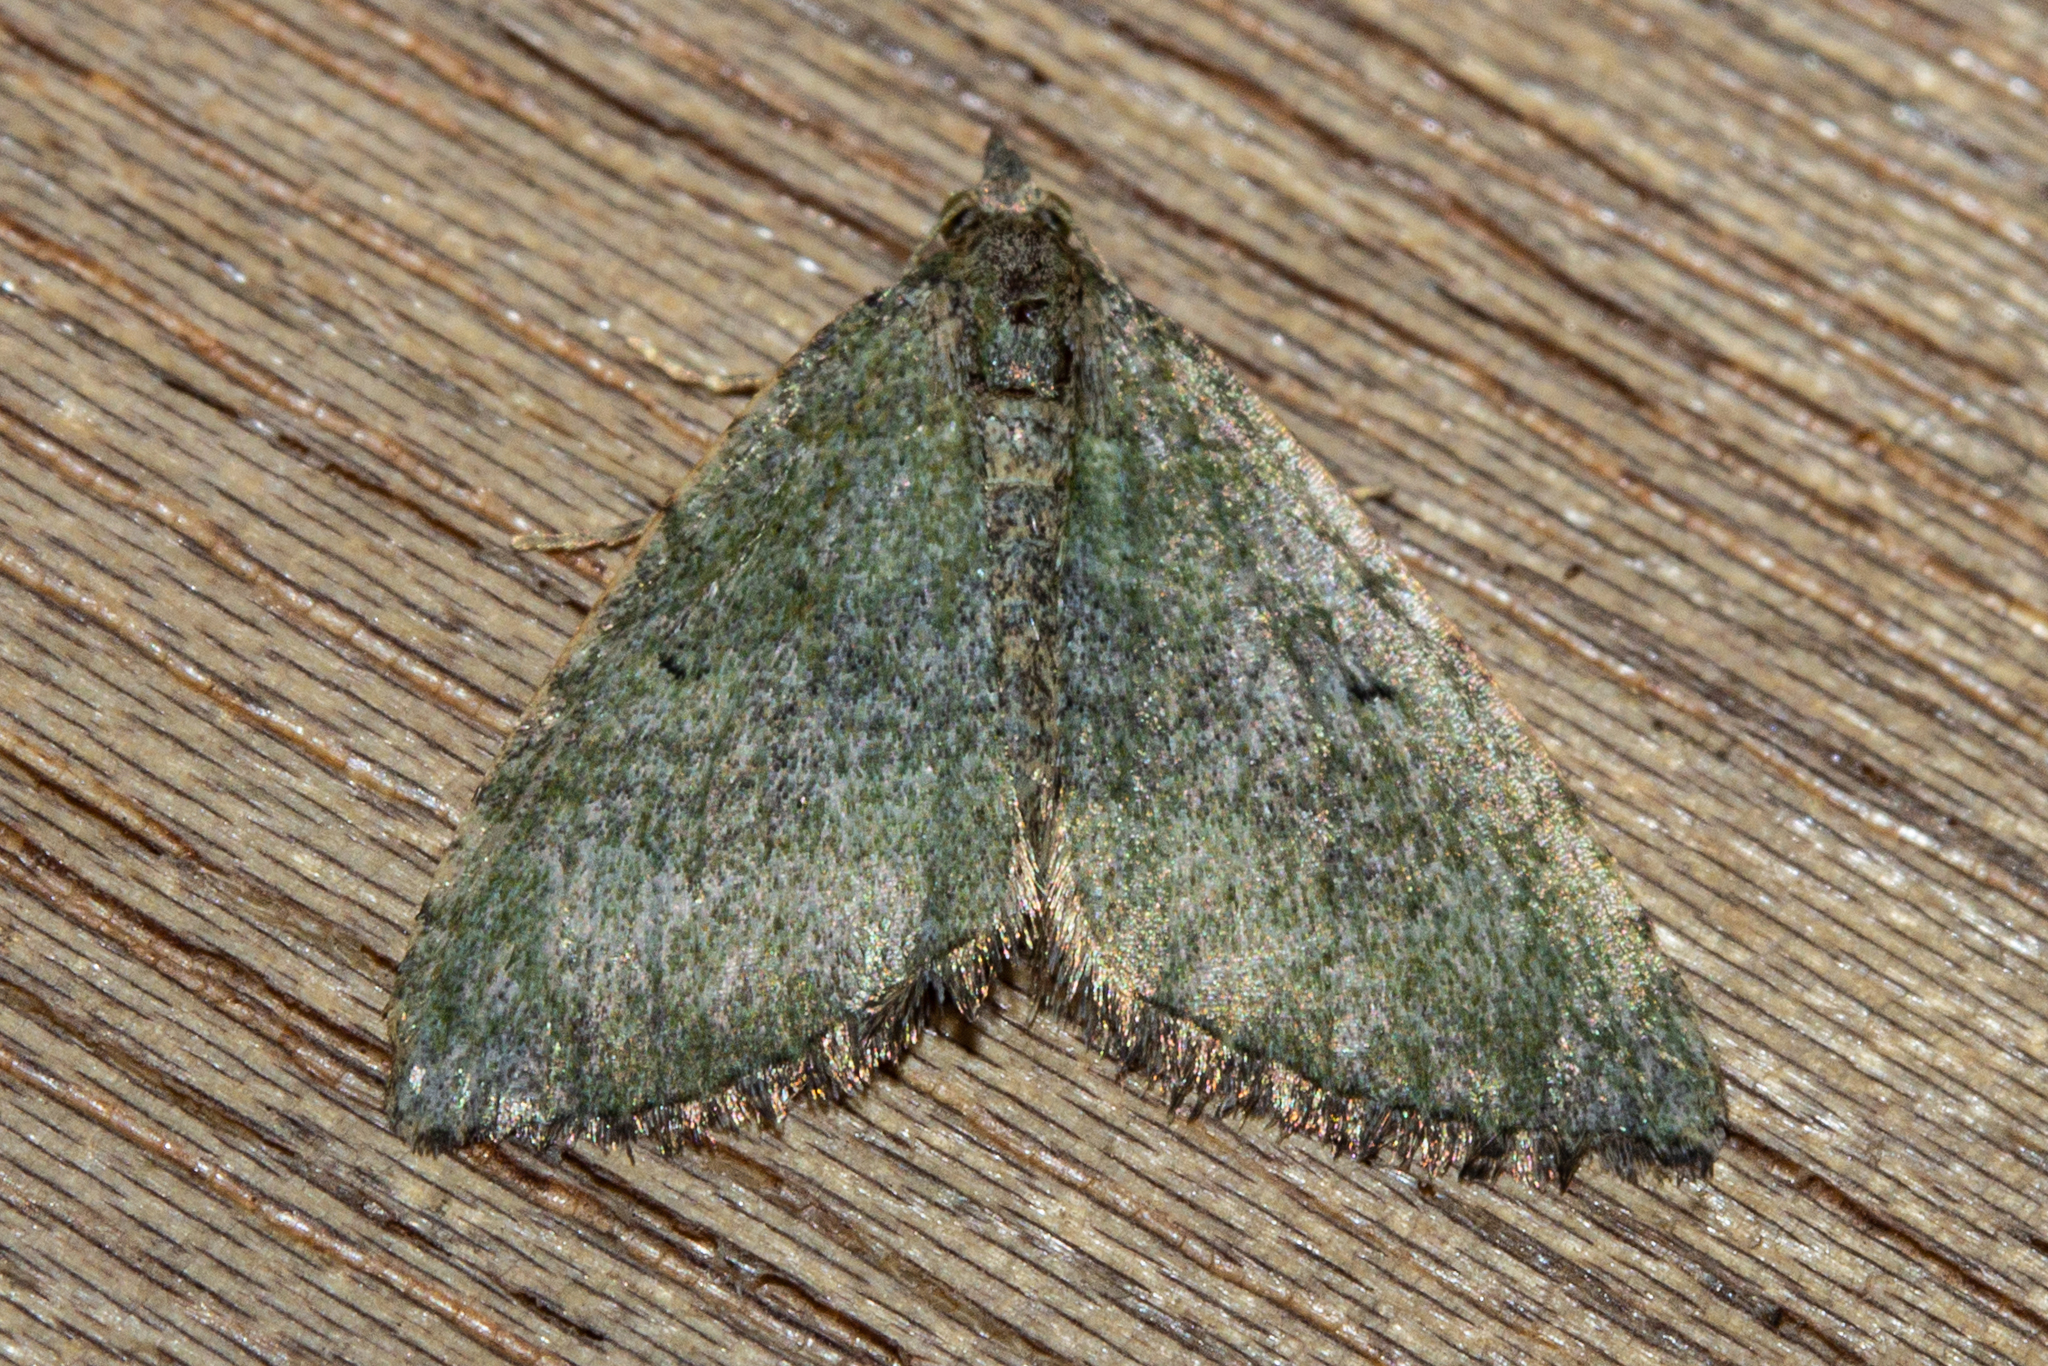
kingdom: Animalia
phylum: Arthropoda
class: Insecta
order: Lepidoptera
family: Geometridae
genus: Epyaxa
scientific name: Epyaxa rosearia
